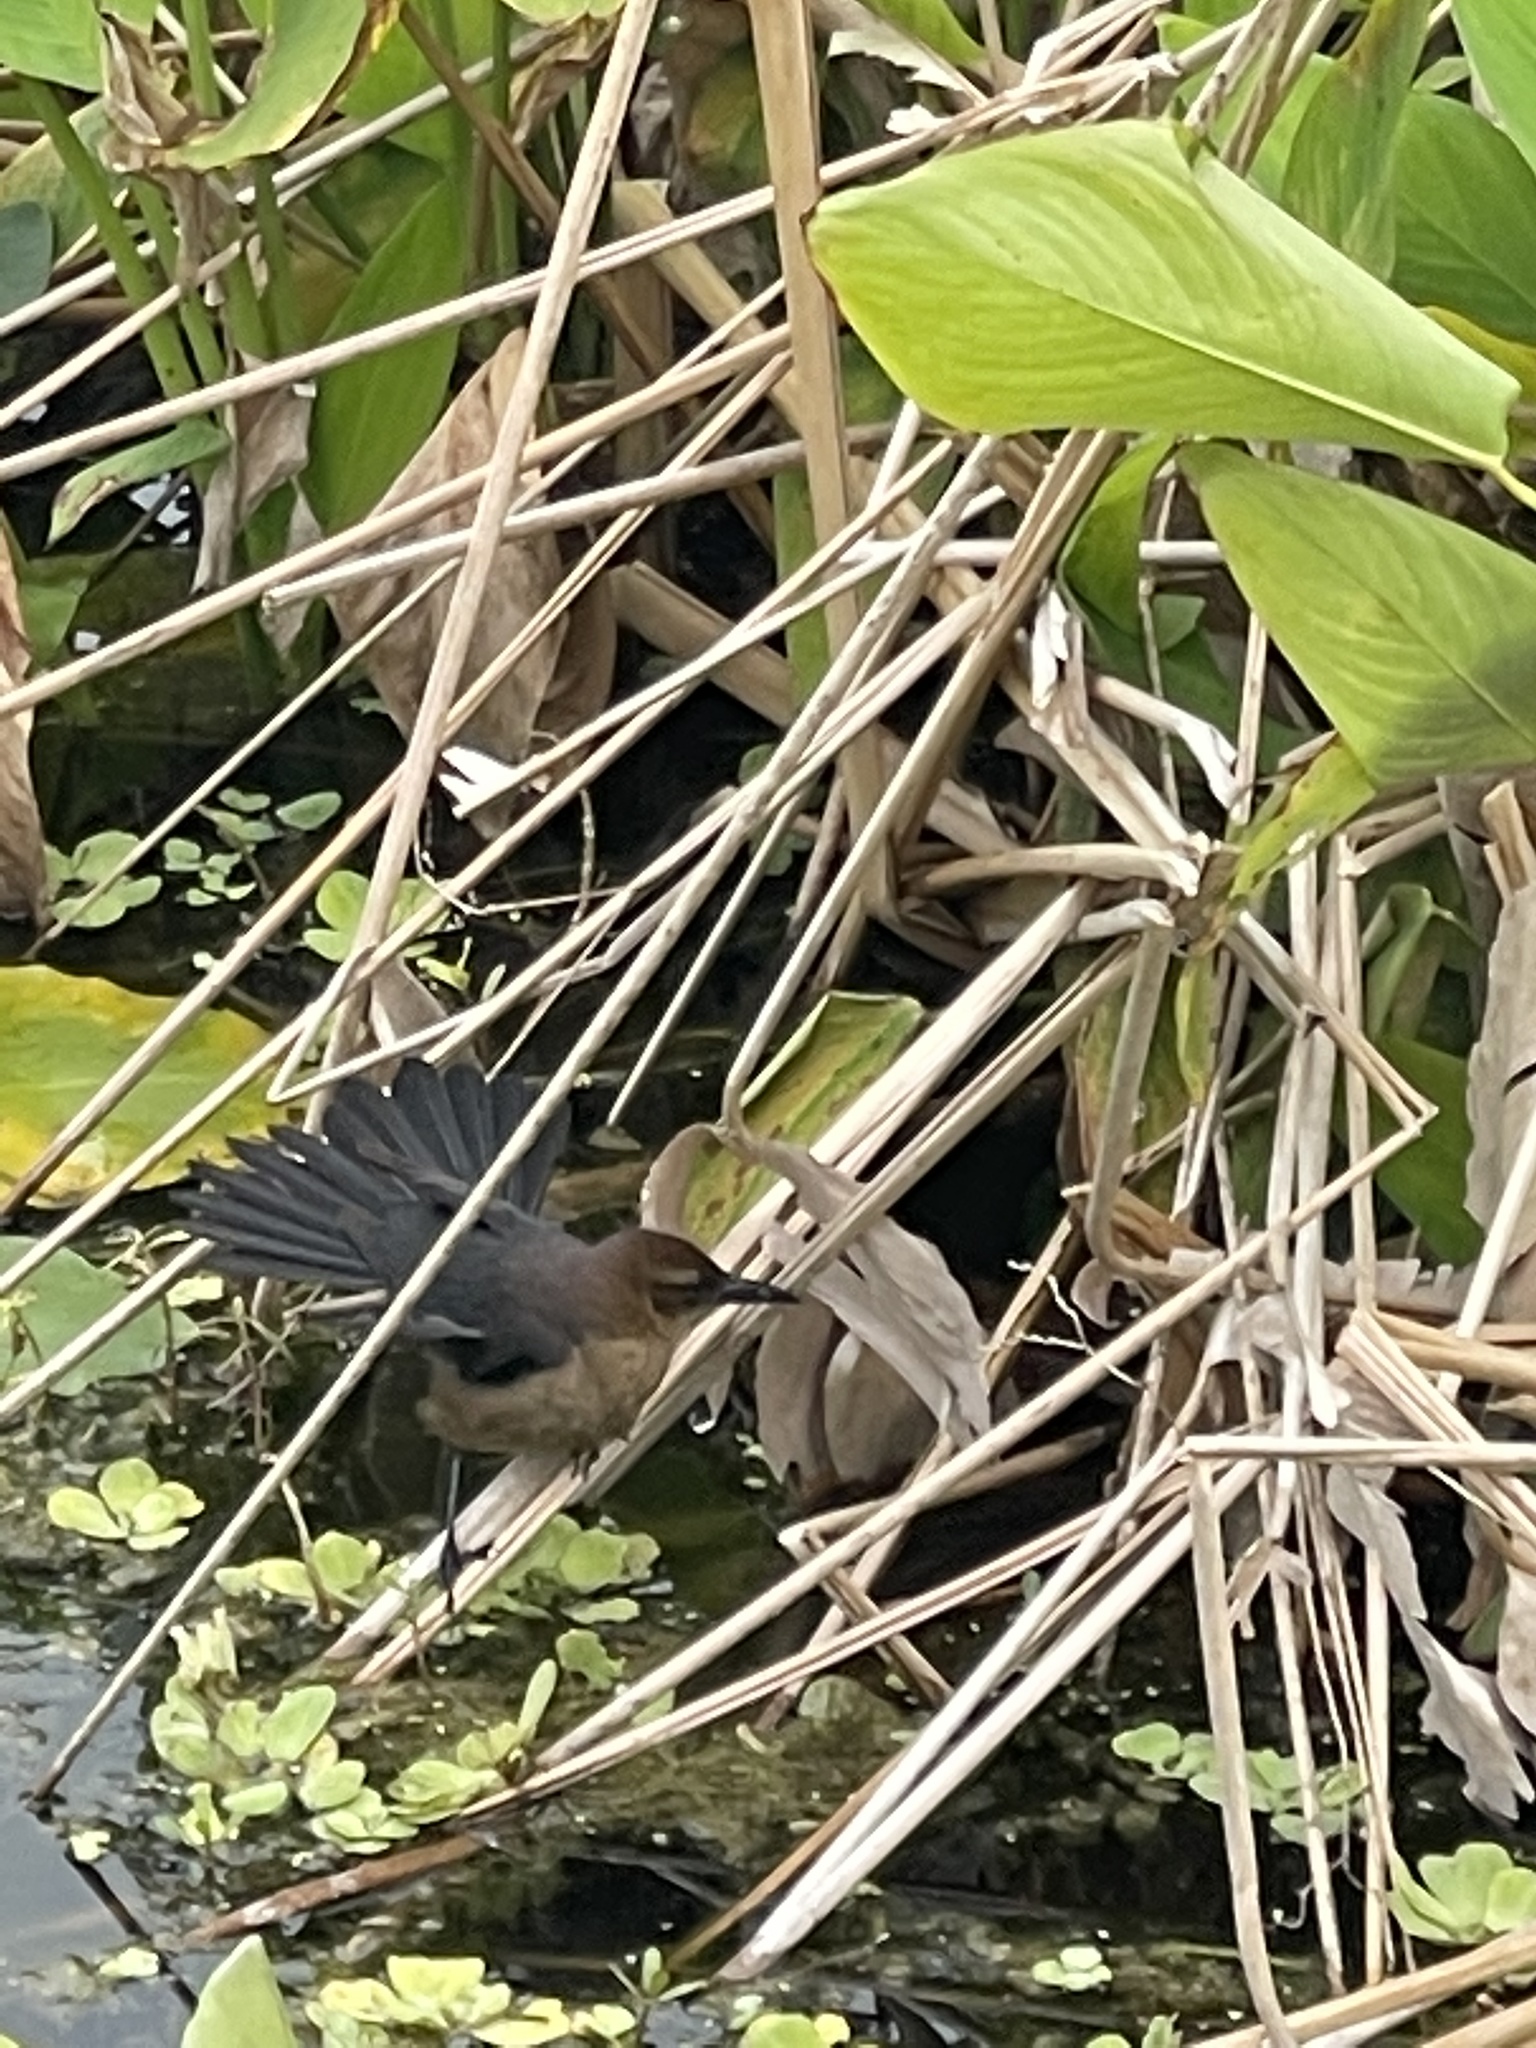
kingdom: Animalia
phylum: Chordata
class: Aves
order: Passeriformes
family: Icteridae
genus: Quiscalus
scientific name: Quiscalus major
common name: Boat-tailed grackle
